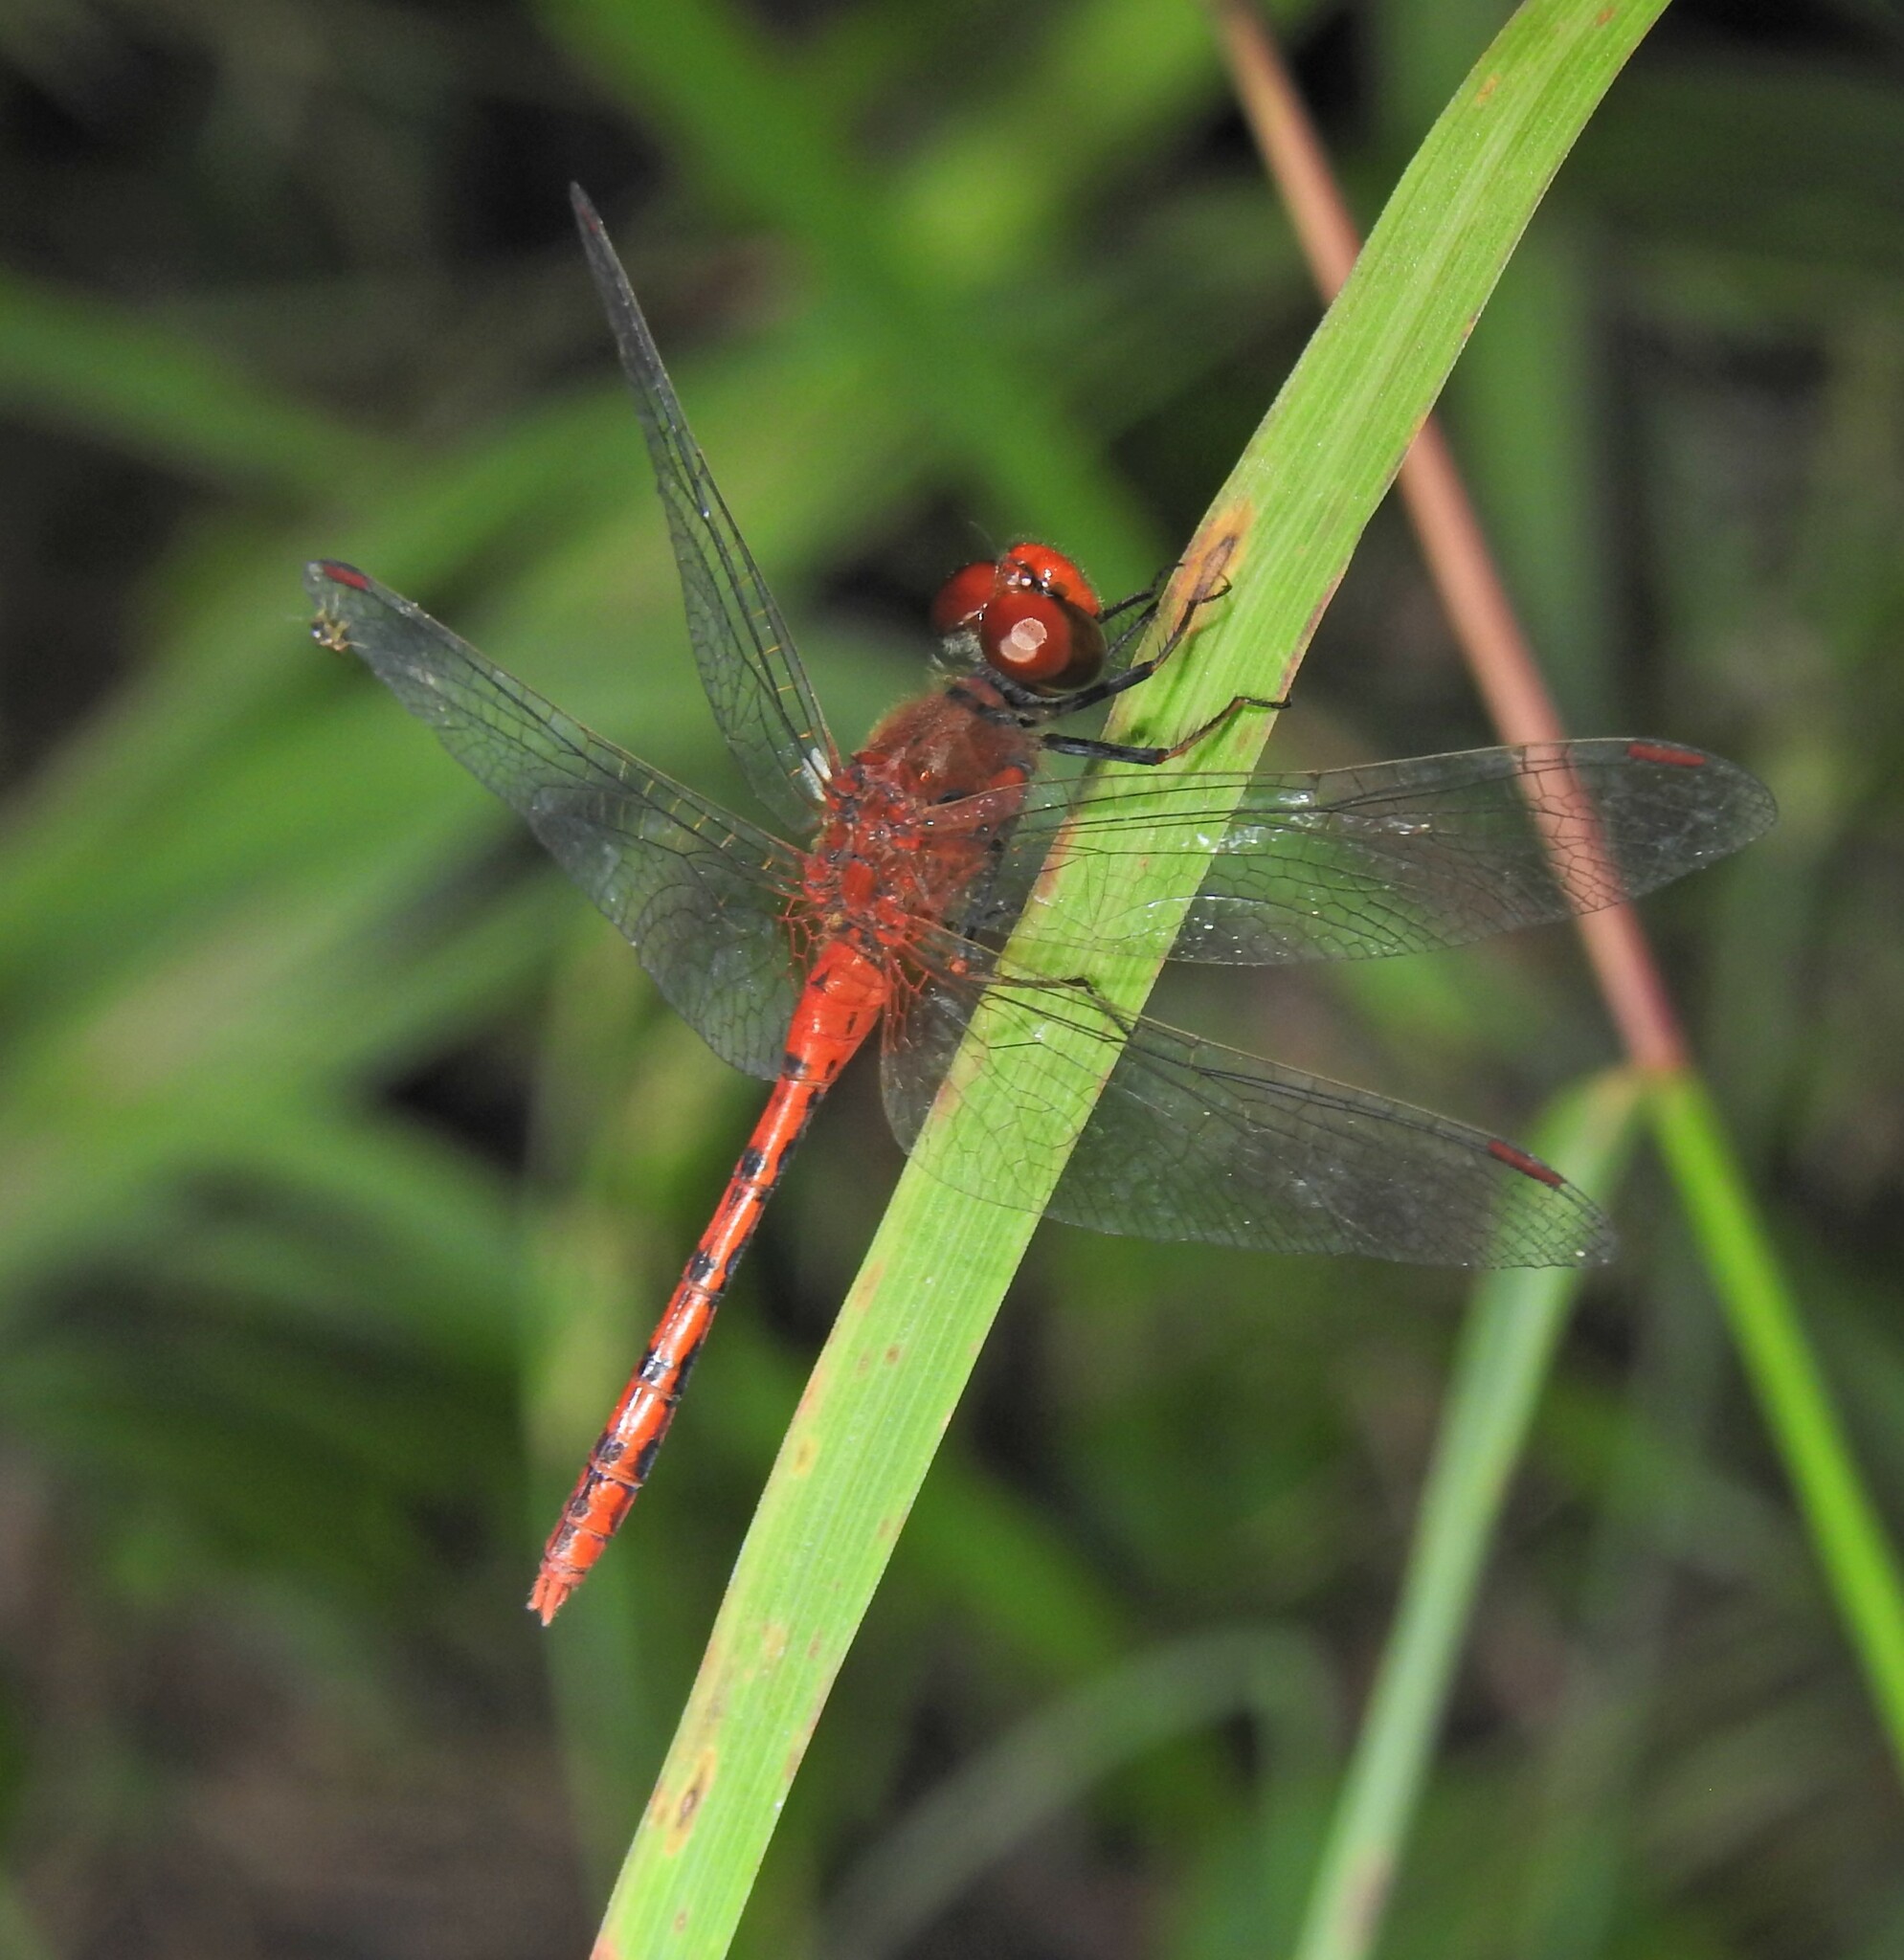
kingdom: Animalia
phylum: Arthropoda
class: Insecta
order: Odonata
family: Libellulidae
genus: Diplacodes
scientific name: Diplacodes bipunctata
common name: Red percher dragonfly
